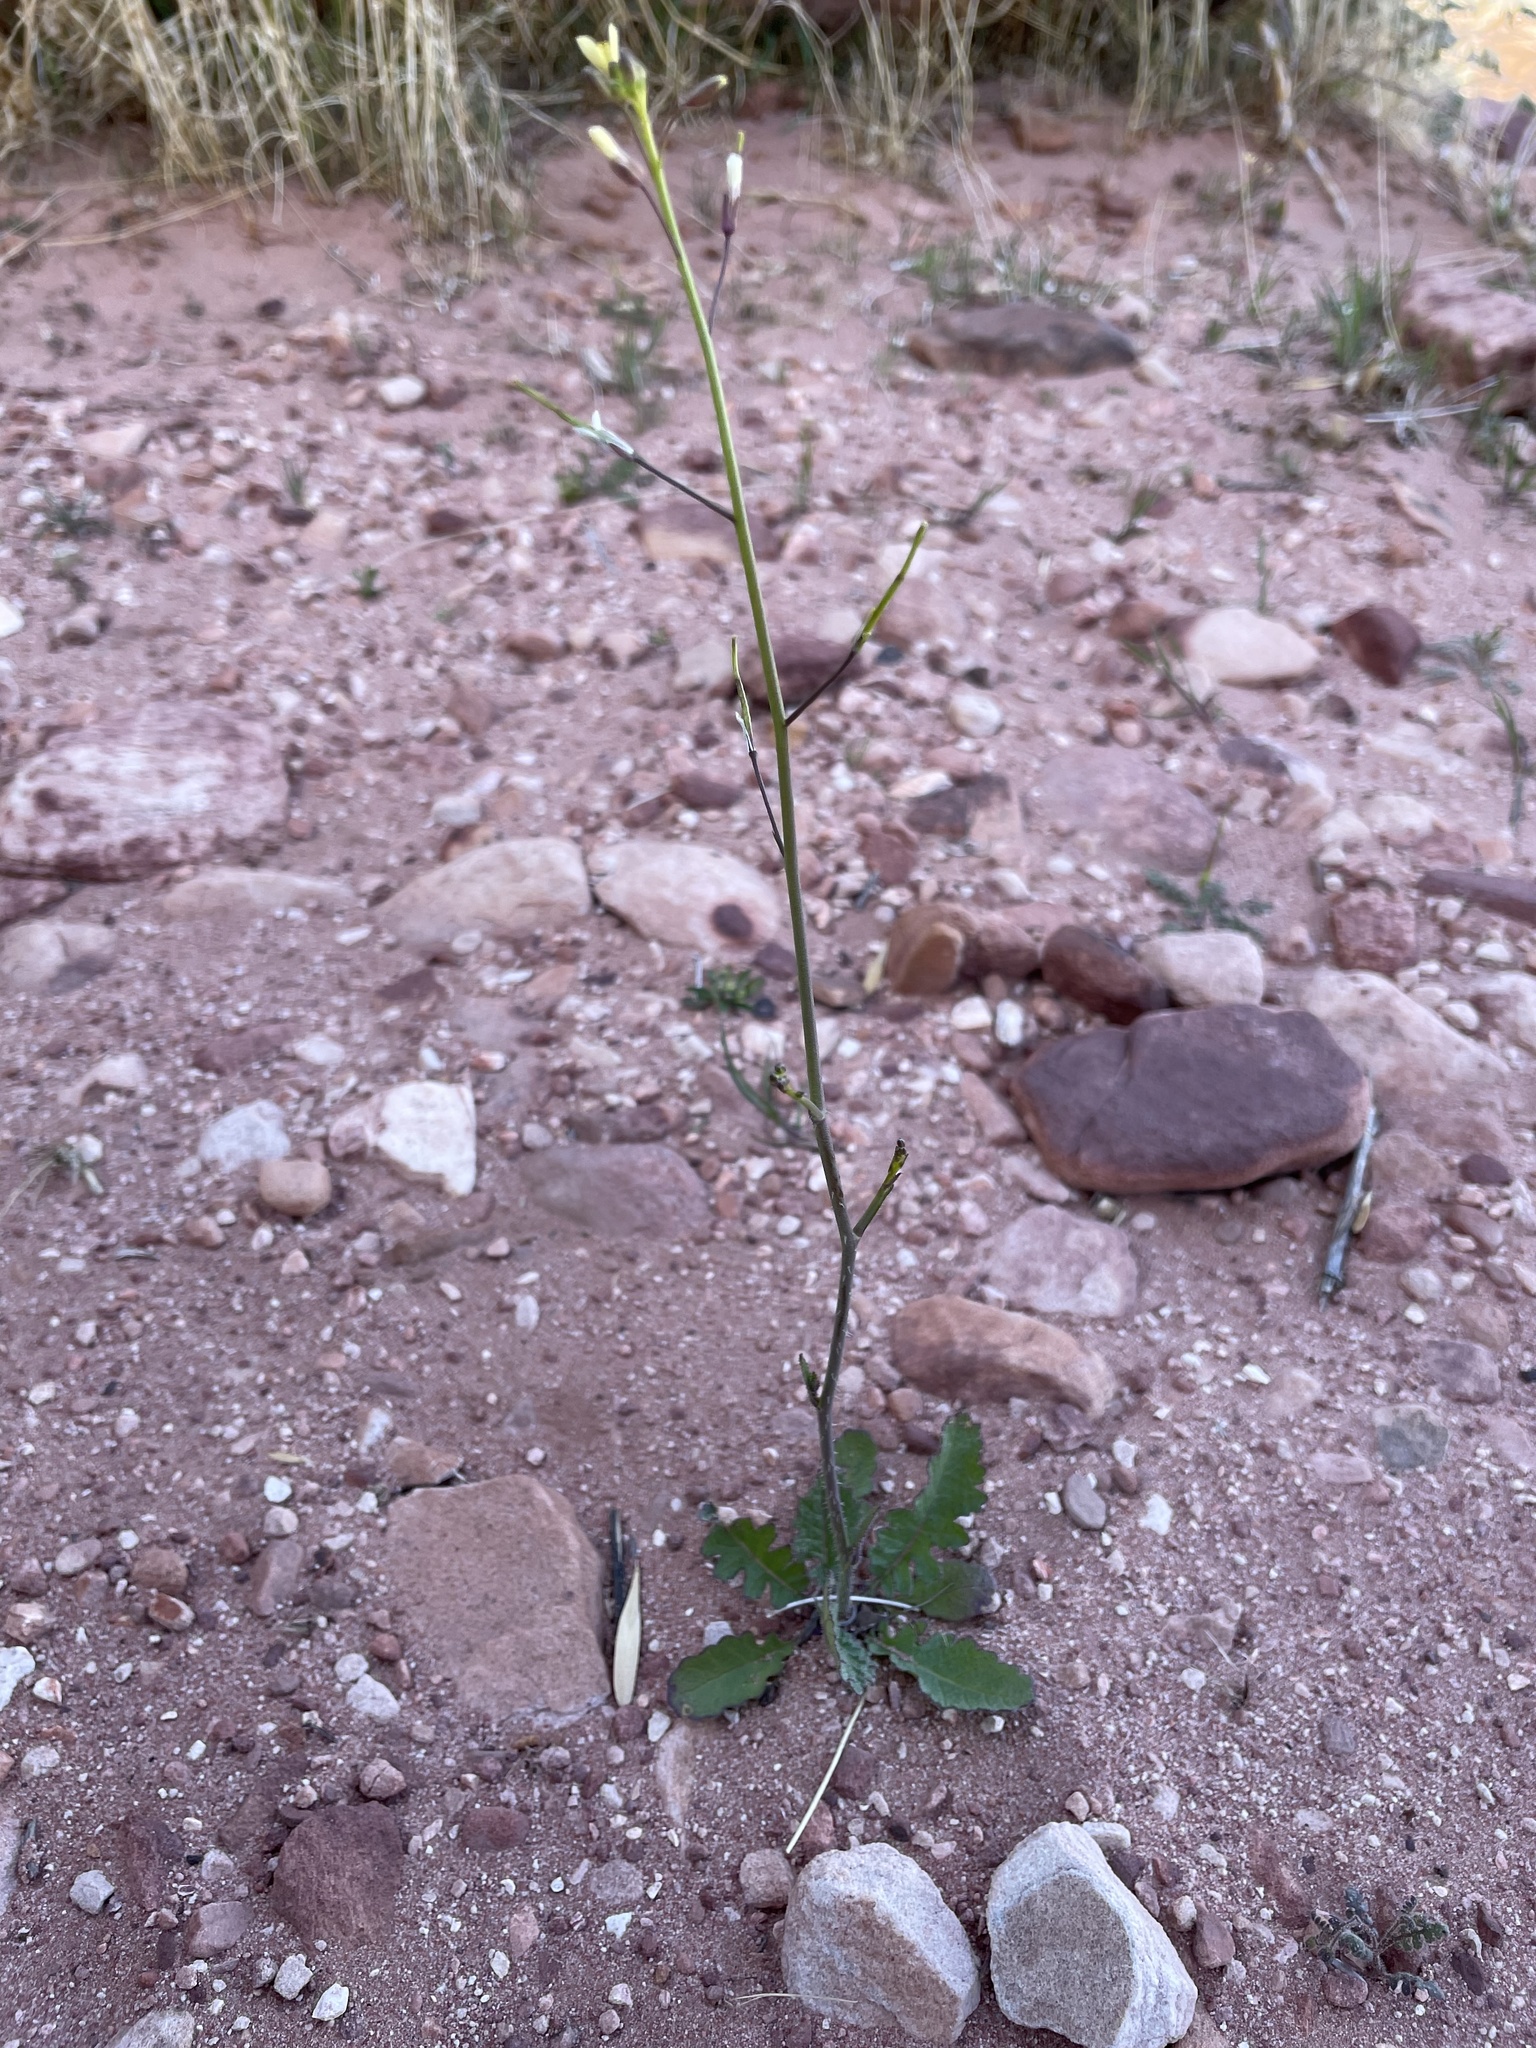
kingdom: Plantae
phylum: Tracheophyta
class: Magnoliopsida
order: Brassicales
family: Brassicaceae
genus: Brassica
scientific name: Brassica tournefortii
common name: Pale cabbage
